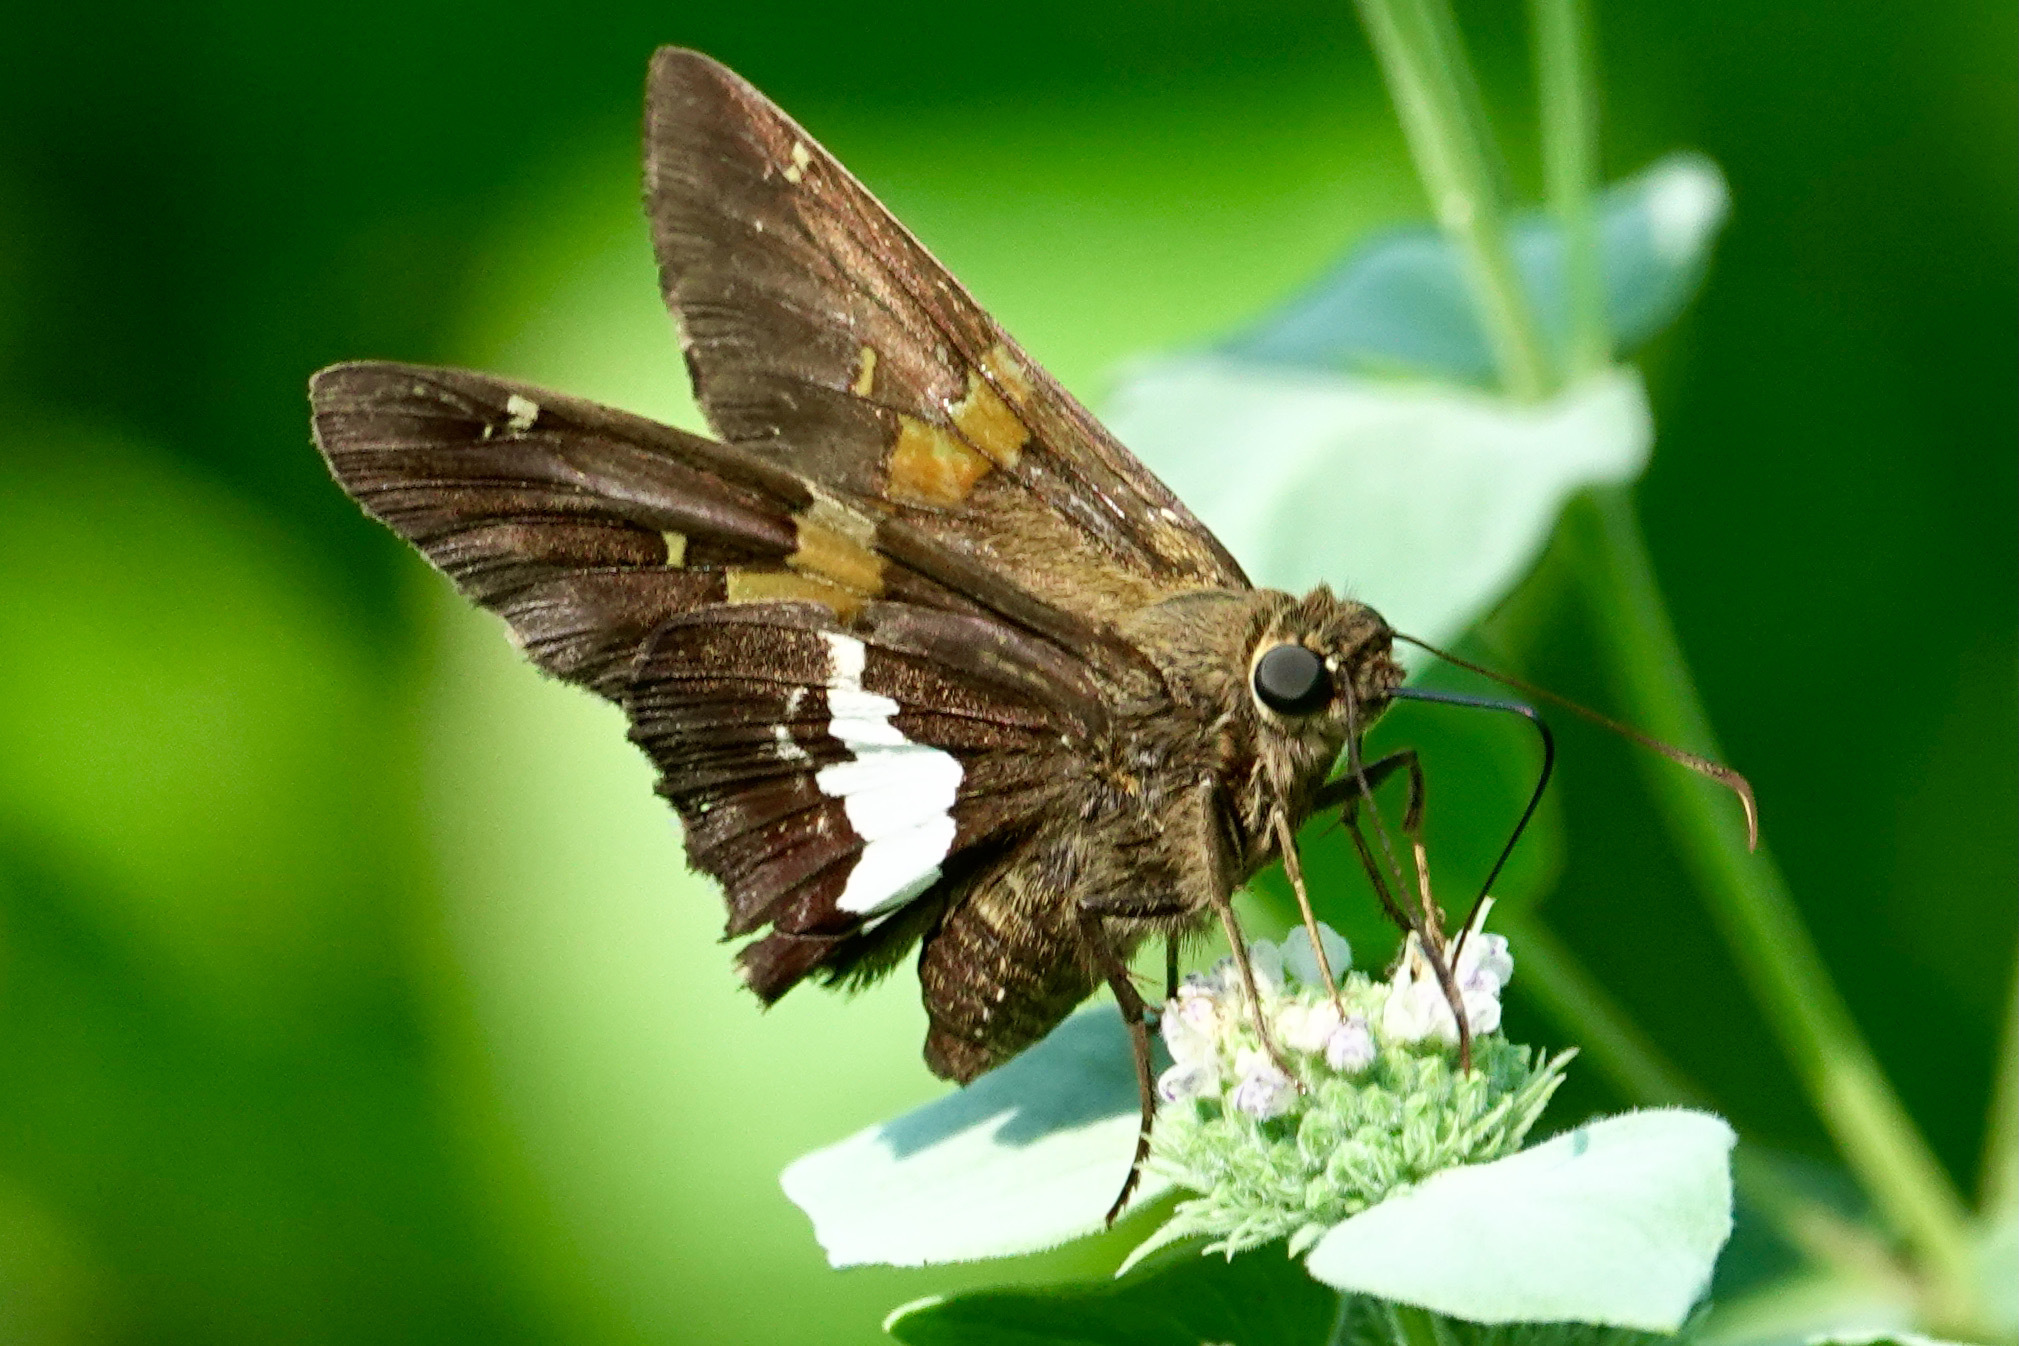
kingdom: Animalia
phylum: Arthropoda
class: Insecta
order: Lepidoptera
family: Hesperiidae
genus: Epargyreus
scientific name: Epargyreus clarus
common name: Silver-spotted skipper
